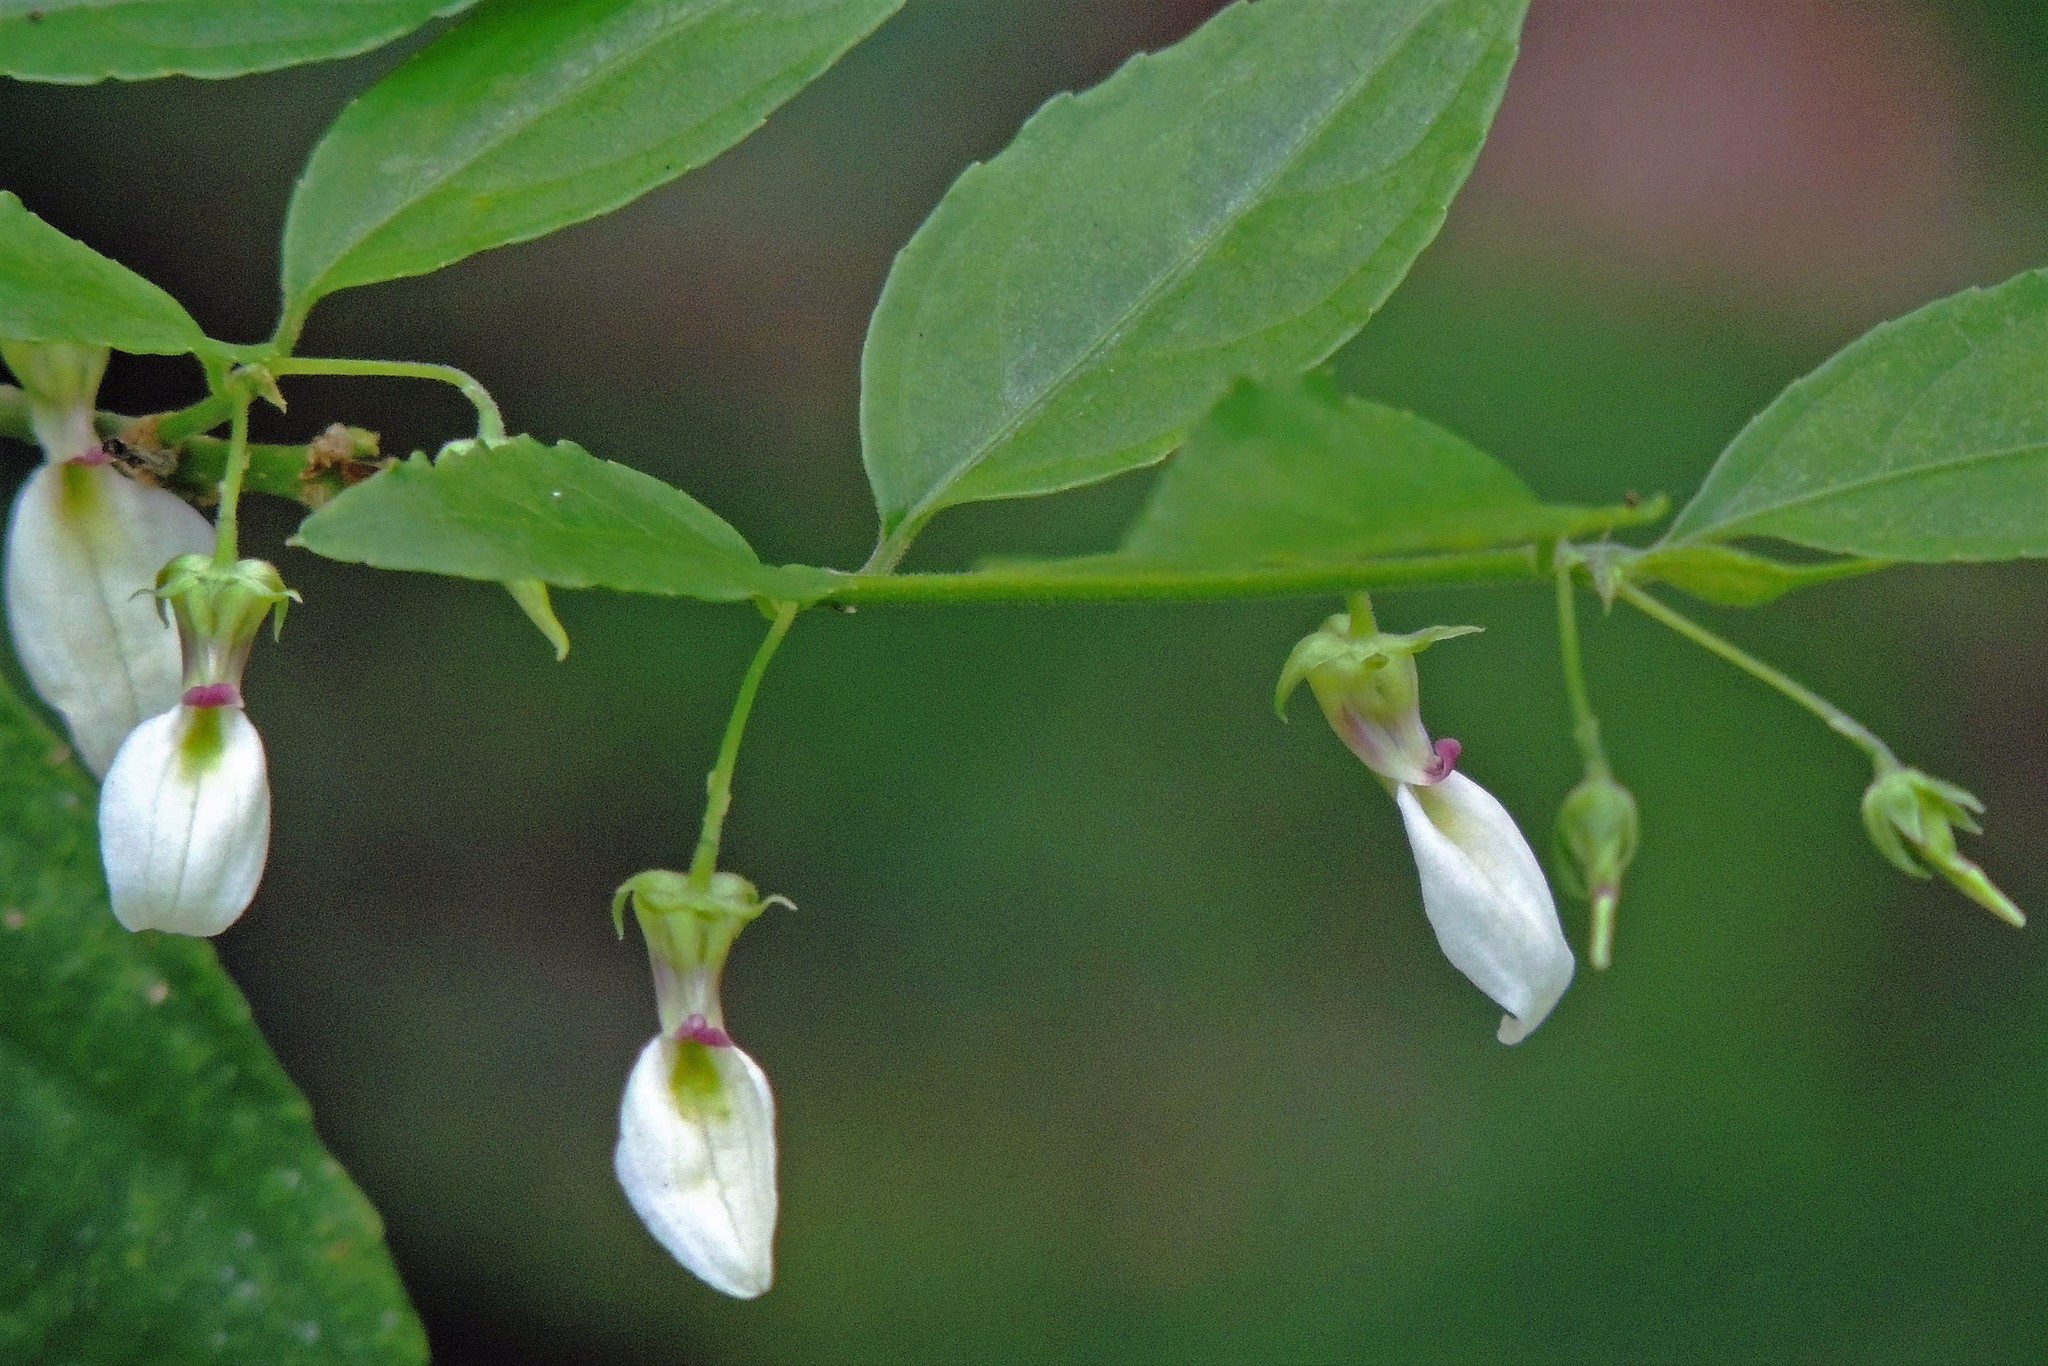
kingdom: Plantae
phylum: Tracheophyta
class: Magnoliopsida
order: Malpighiales
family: Violaceae
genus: Pombalia
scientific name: Pombalia bigibbosa
